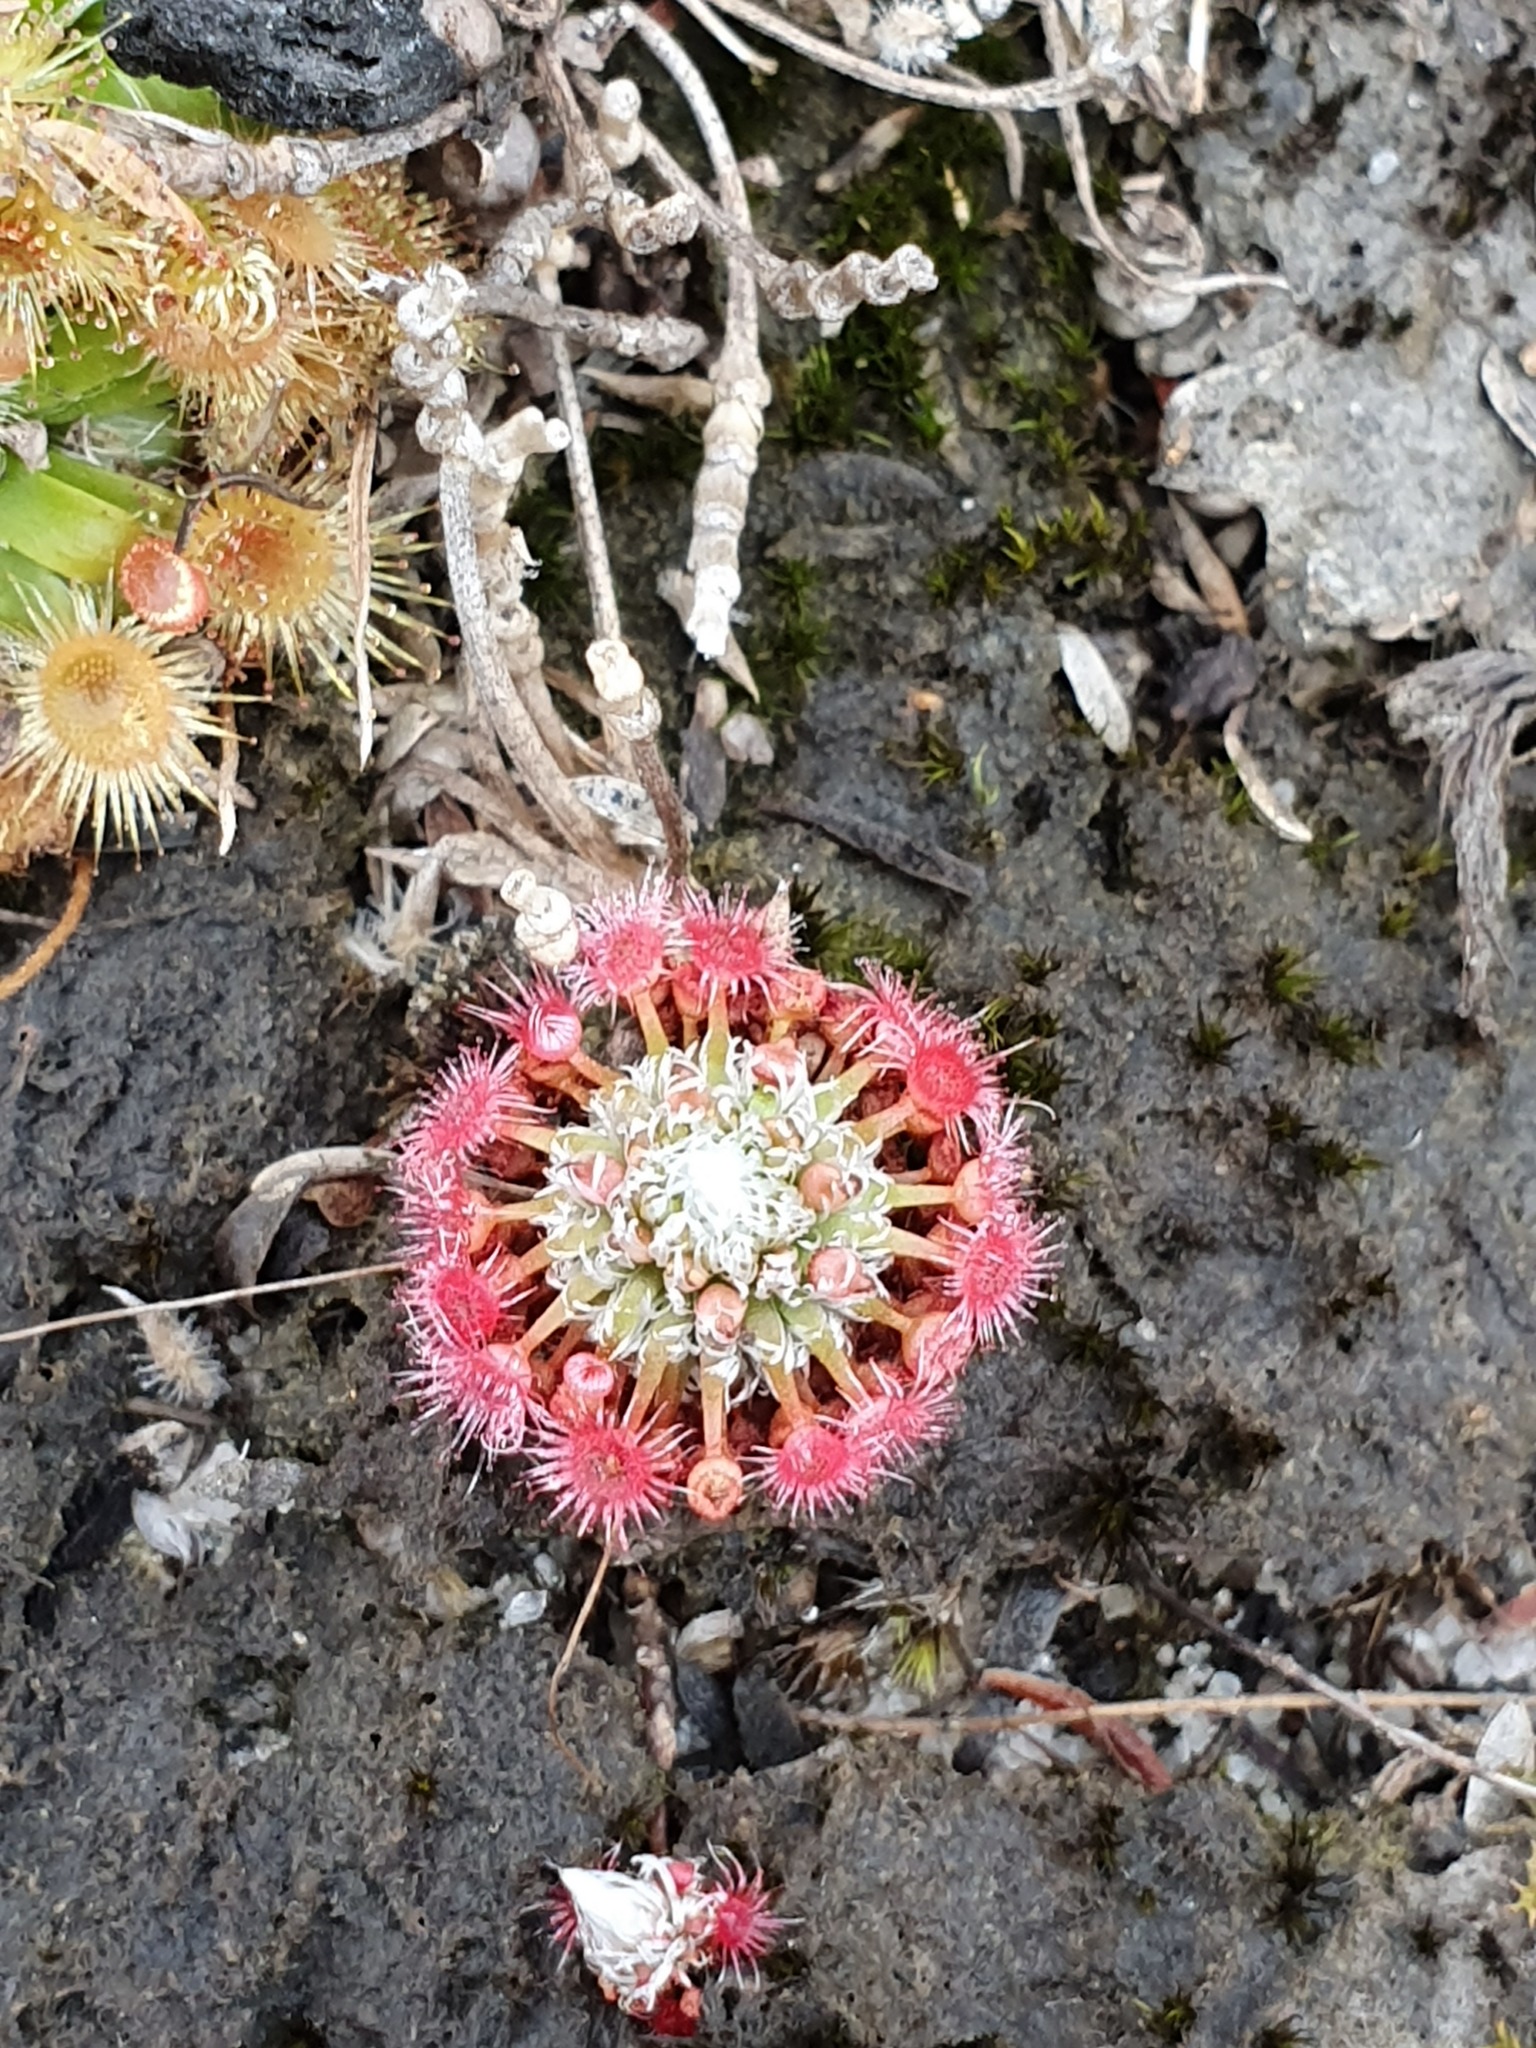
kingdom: Plantae
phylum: Tracheophyta
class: Magnoliopsida
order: Caryophyllales
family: Droseraceae
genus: Drosera
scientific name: Drosera occidentalis
